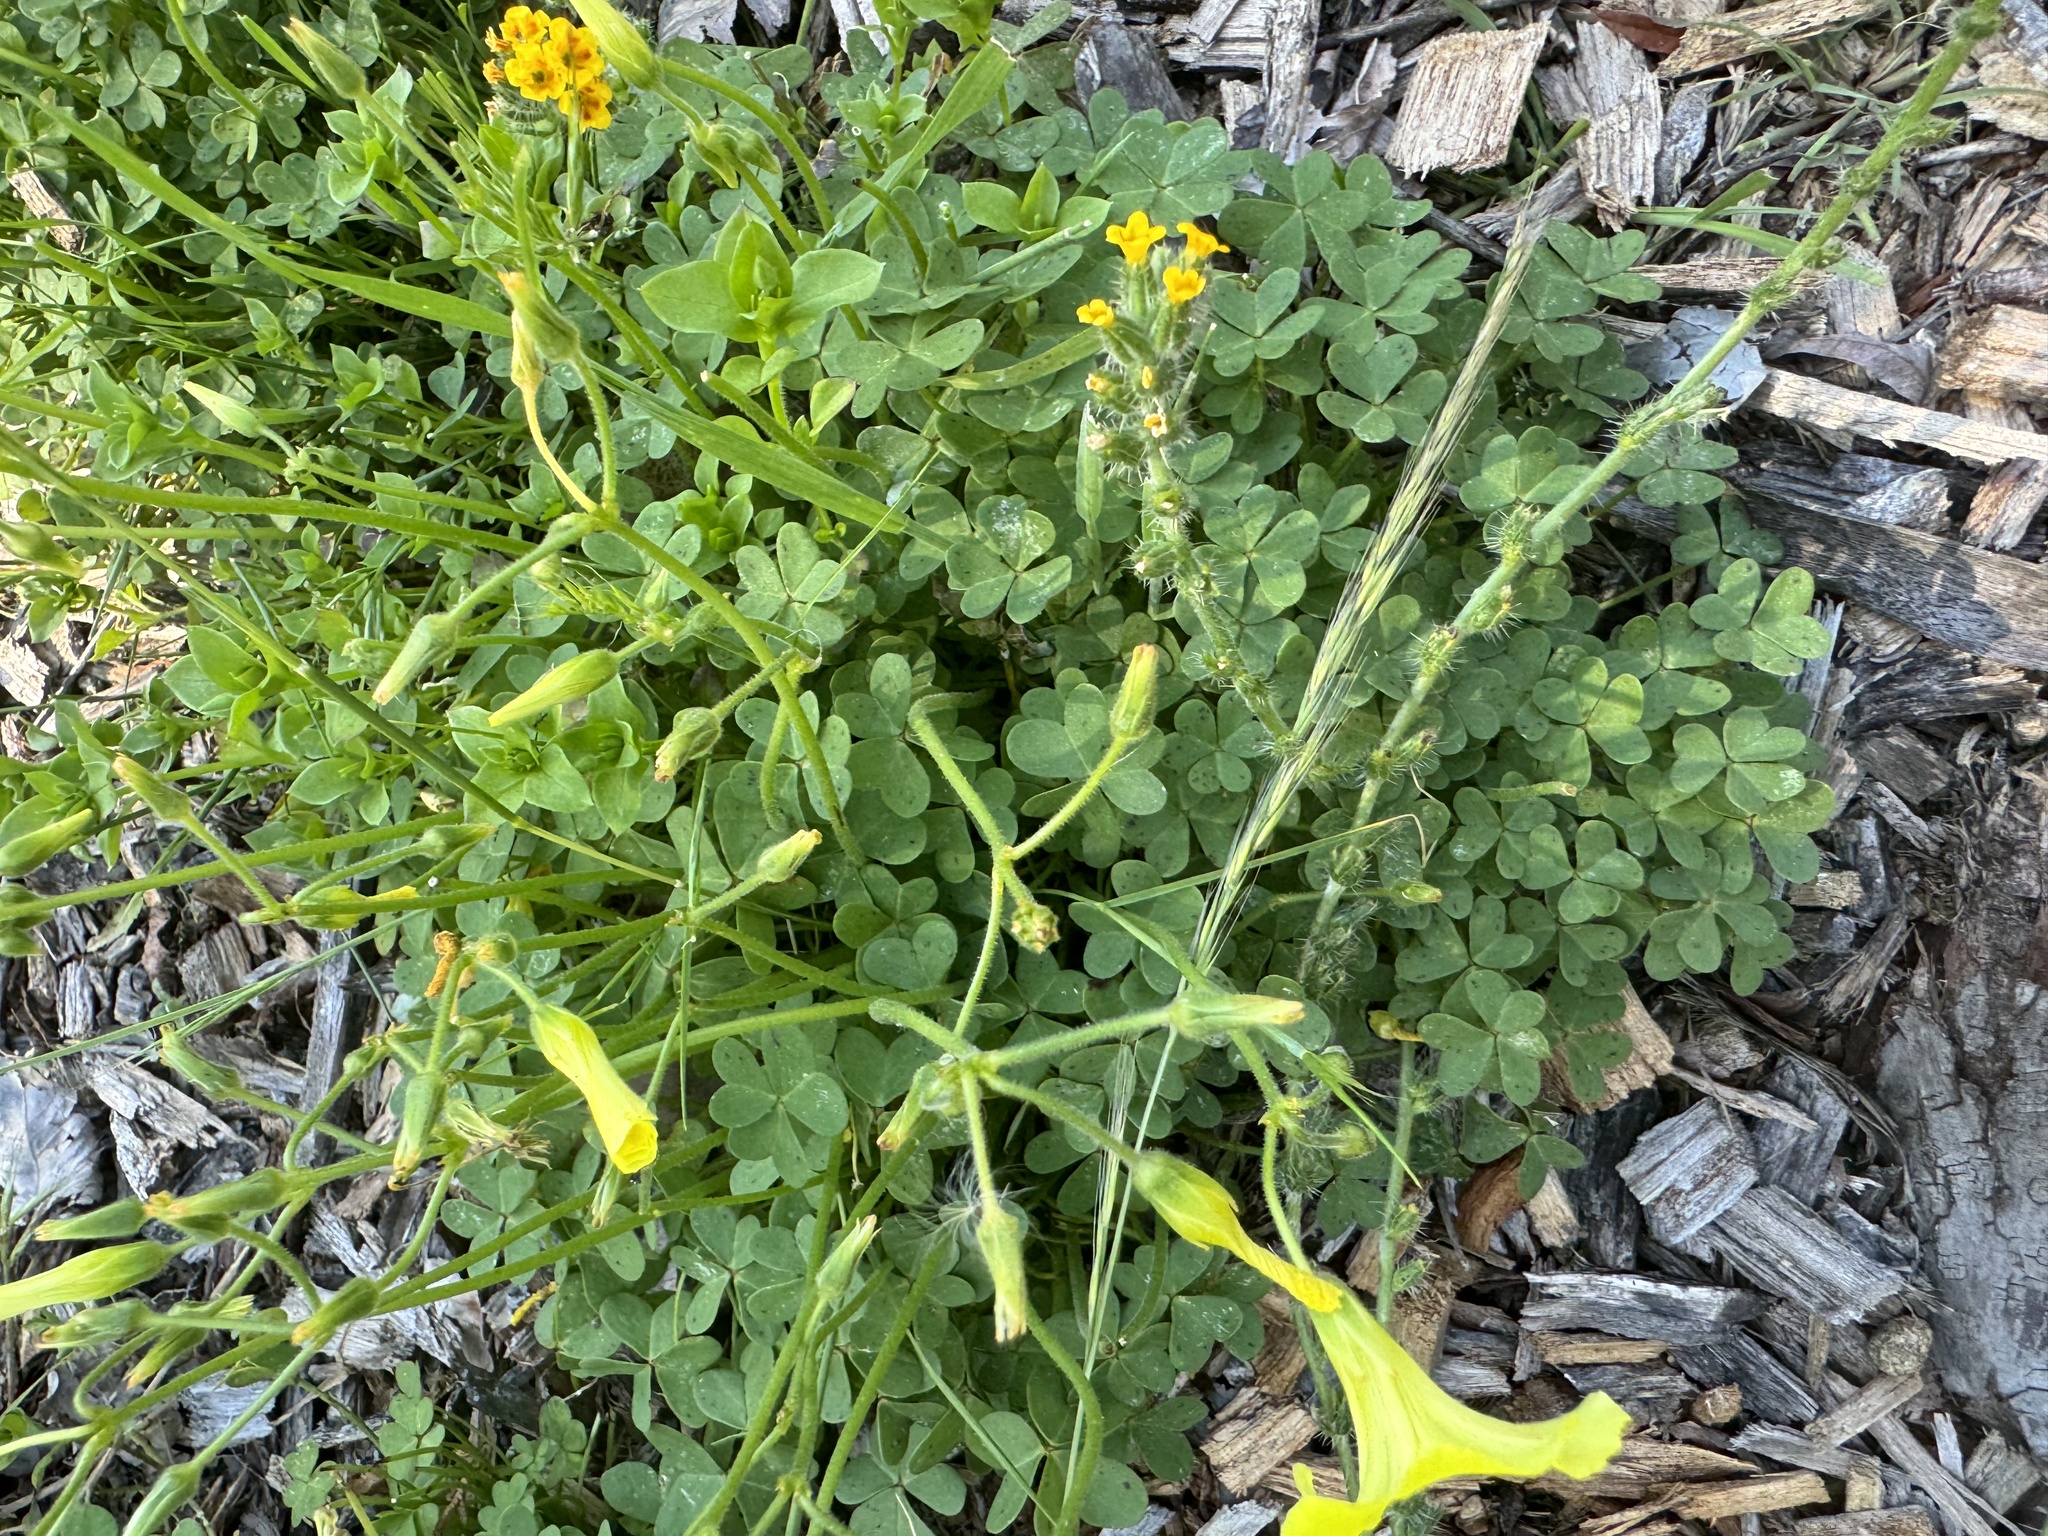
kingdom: Plantae
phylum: Tracheophyta
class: Magnoliopsida
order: Oxalidales
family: Oxalidaceae
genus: Oxalis
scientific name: Oxalis pes-caprae
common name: Bermuda-buttercup
